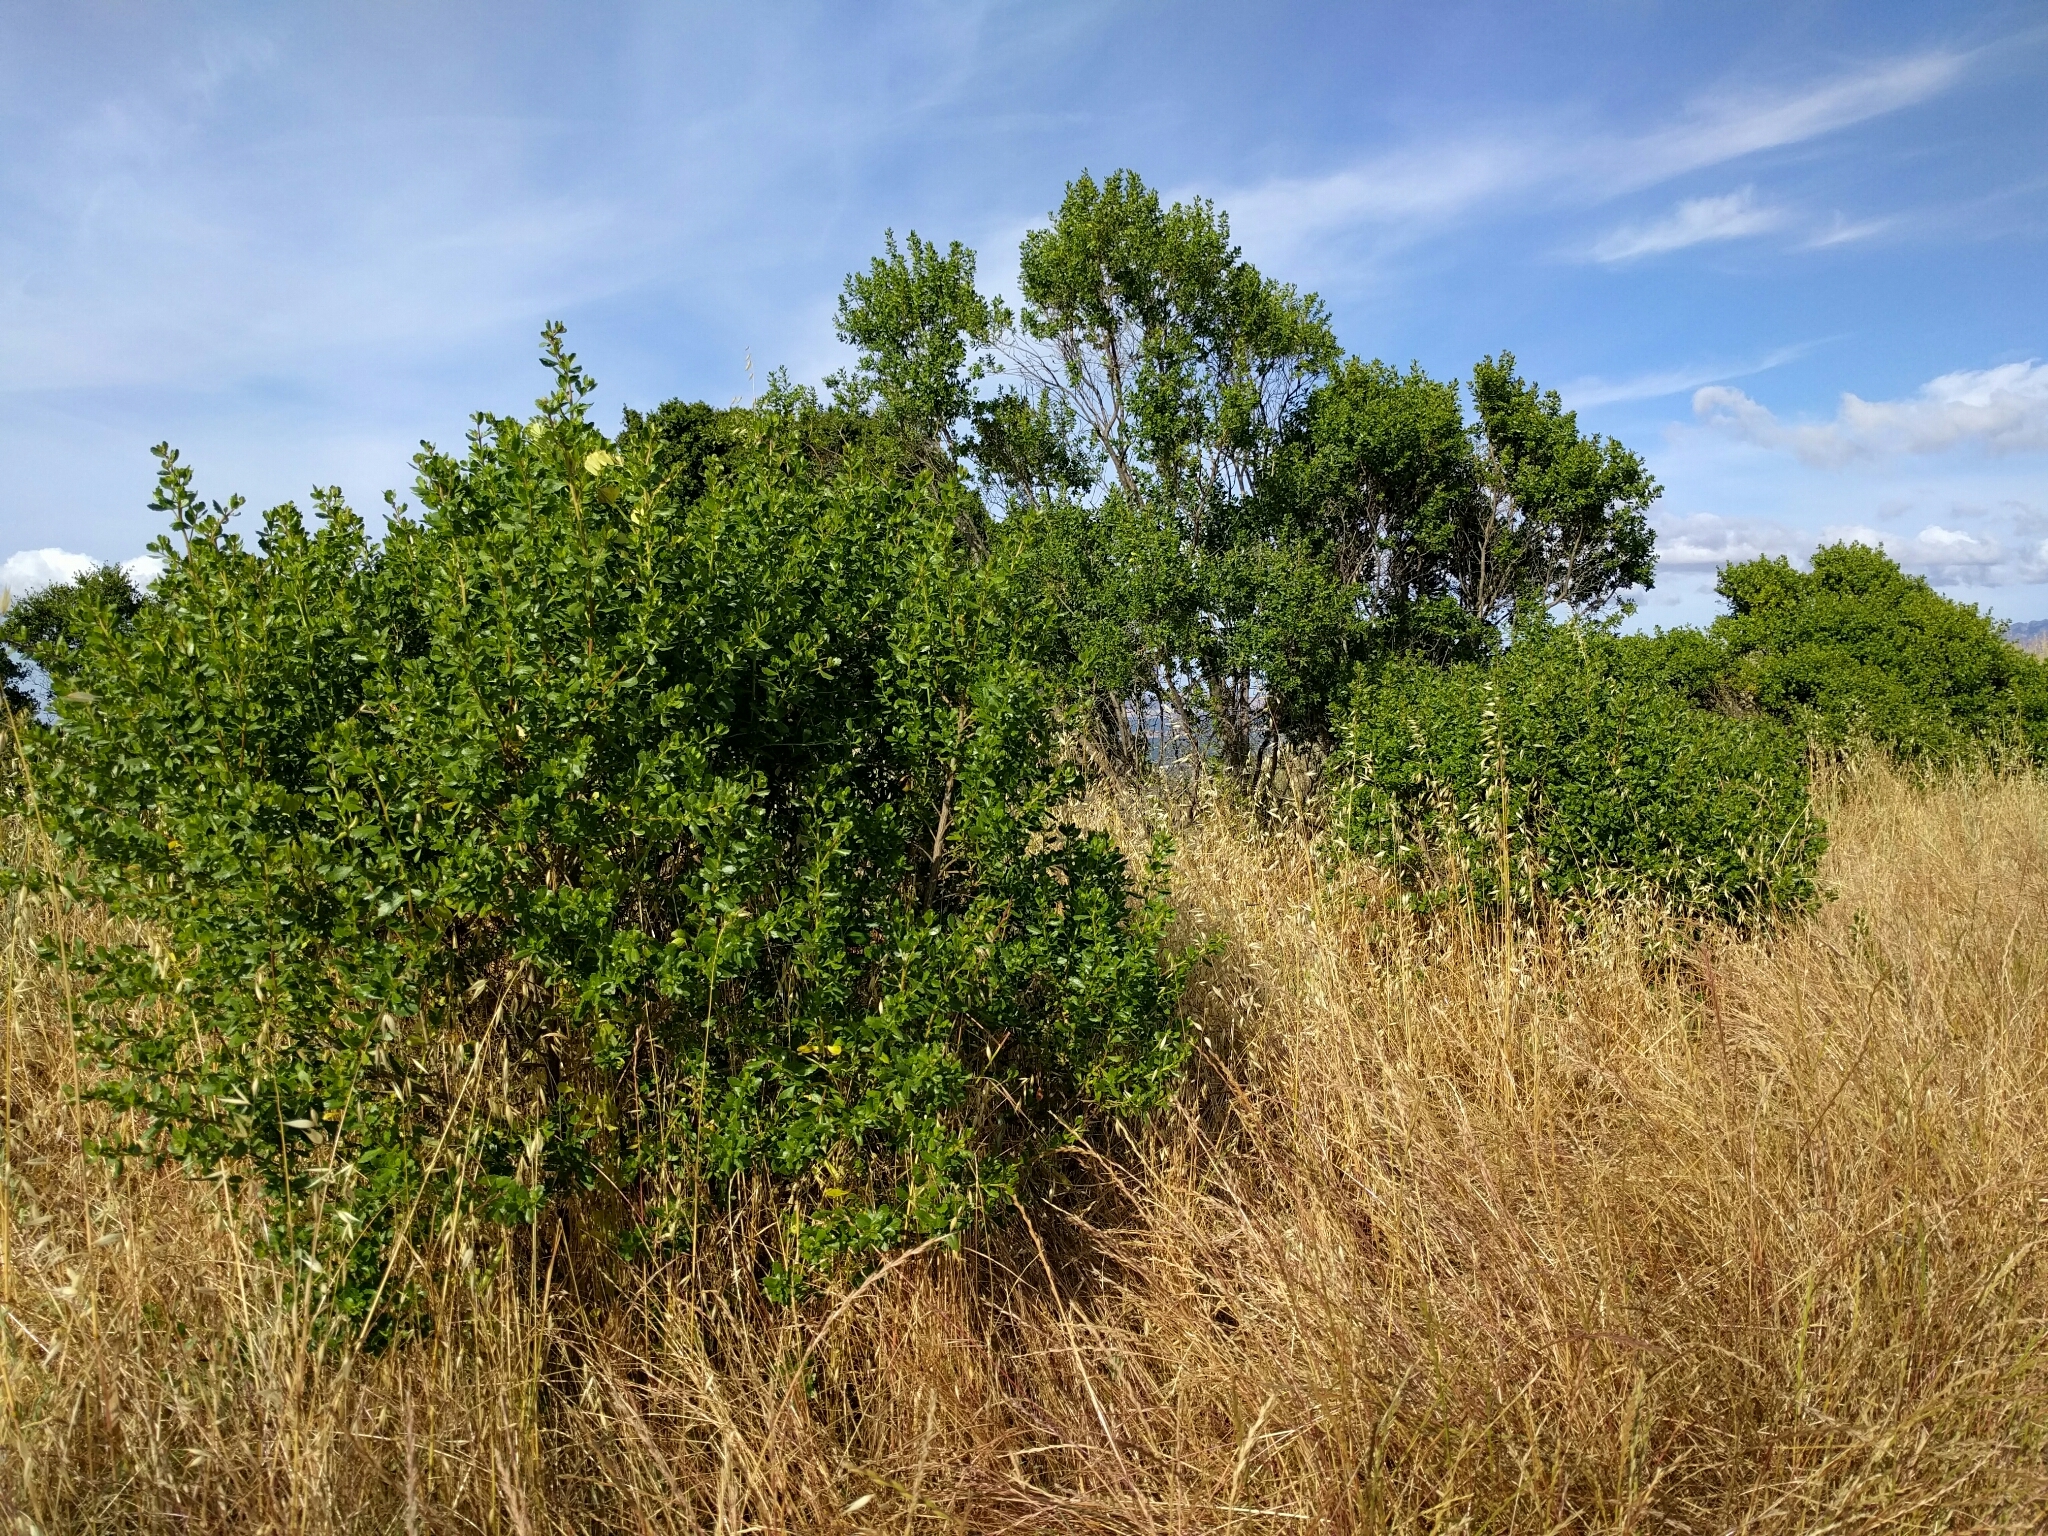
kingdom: Plantae
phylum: Tracheophyta
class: Magnoliopsida
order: Asterales
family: Asteraceae
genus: Baccharis
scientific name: Baccharis pilularis
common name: Coyotebrush
